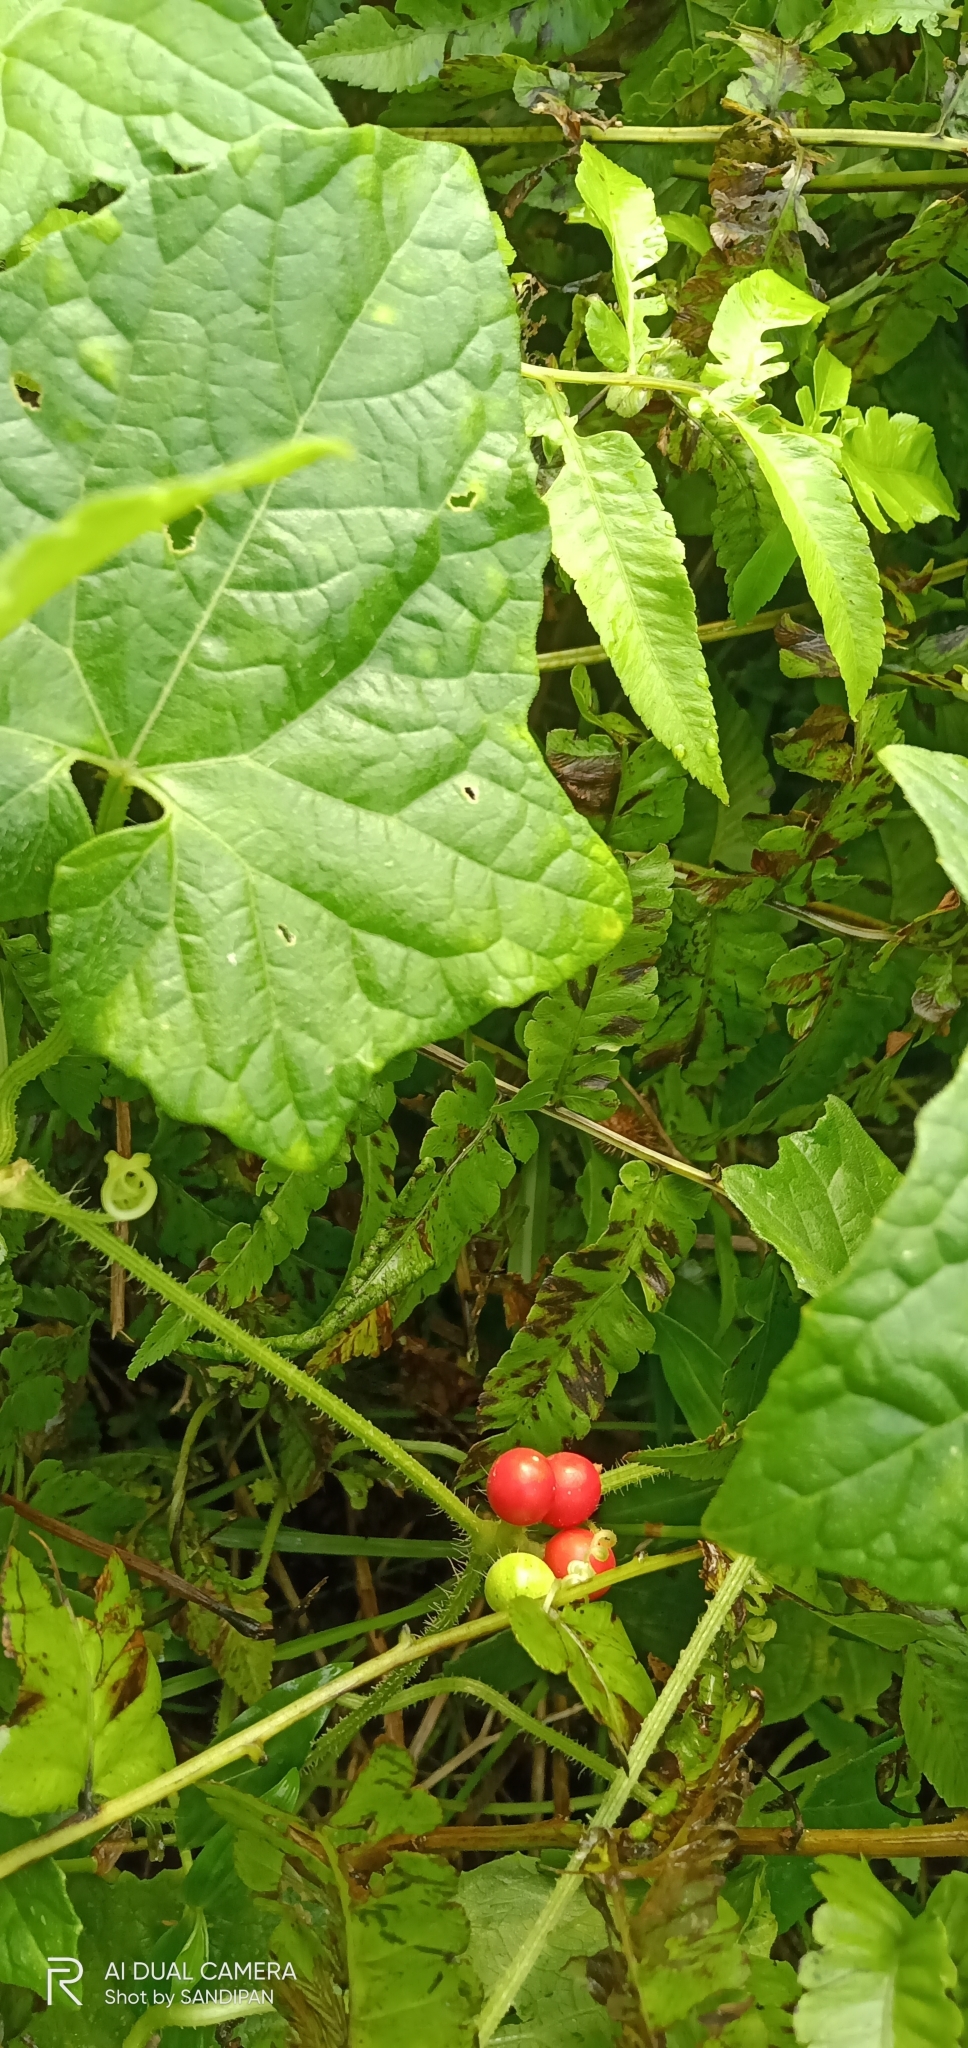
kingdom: Plantae
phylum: Tracheophyta
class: Magnoliopsida
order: Cucurbitales
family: Cucurbitaceae
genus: Cucumis
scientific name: Cucumis maderaspatanus
